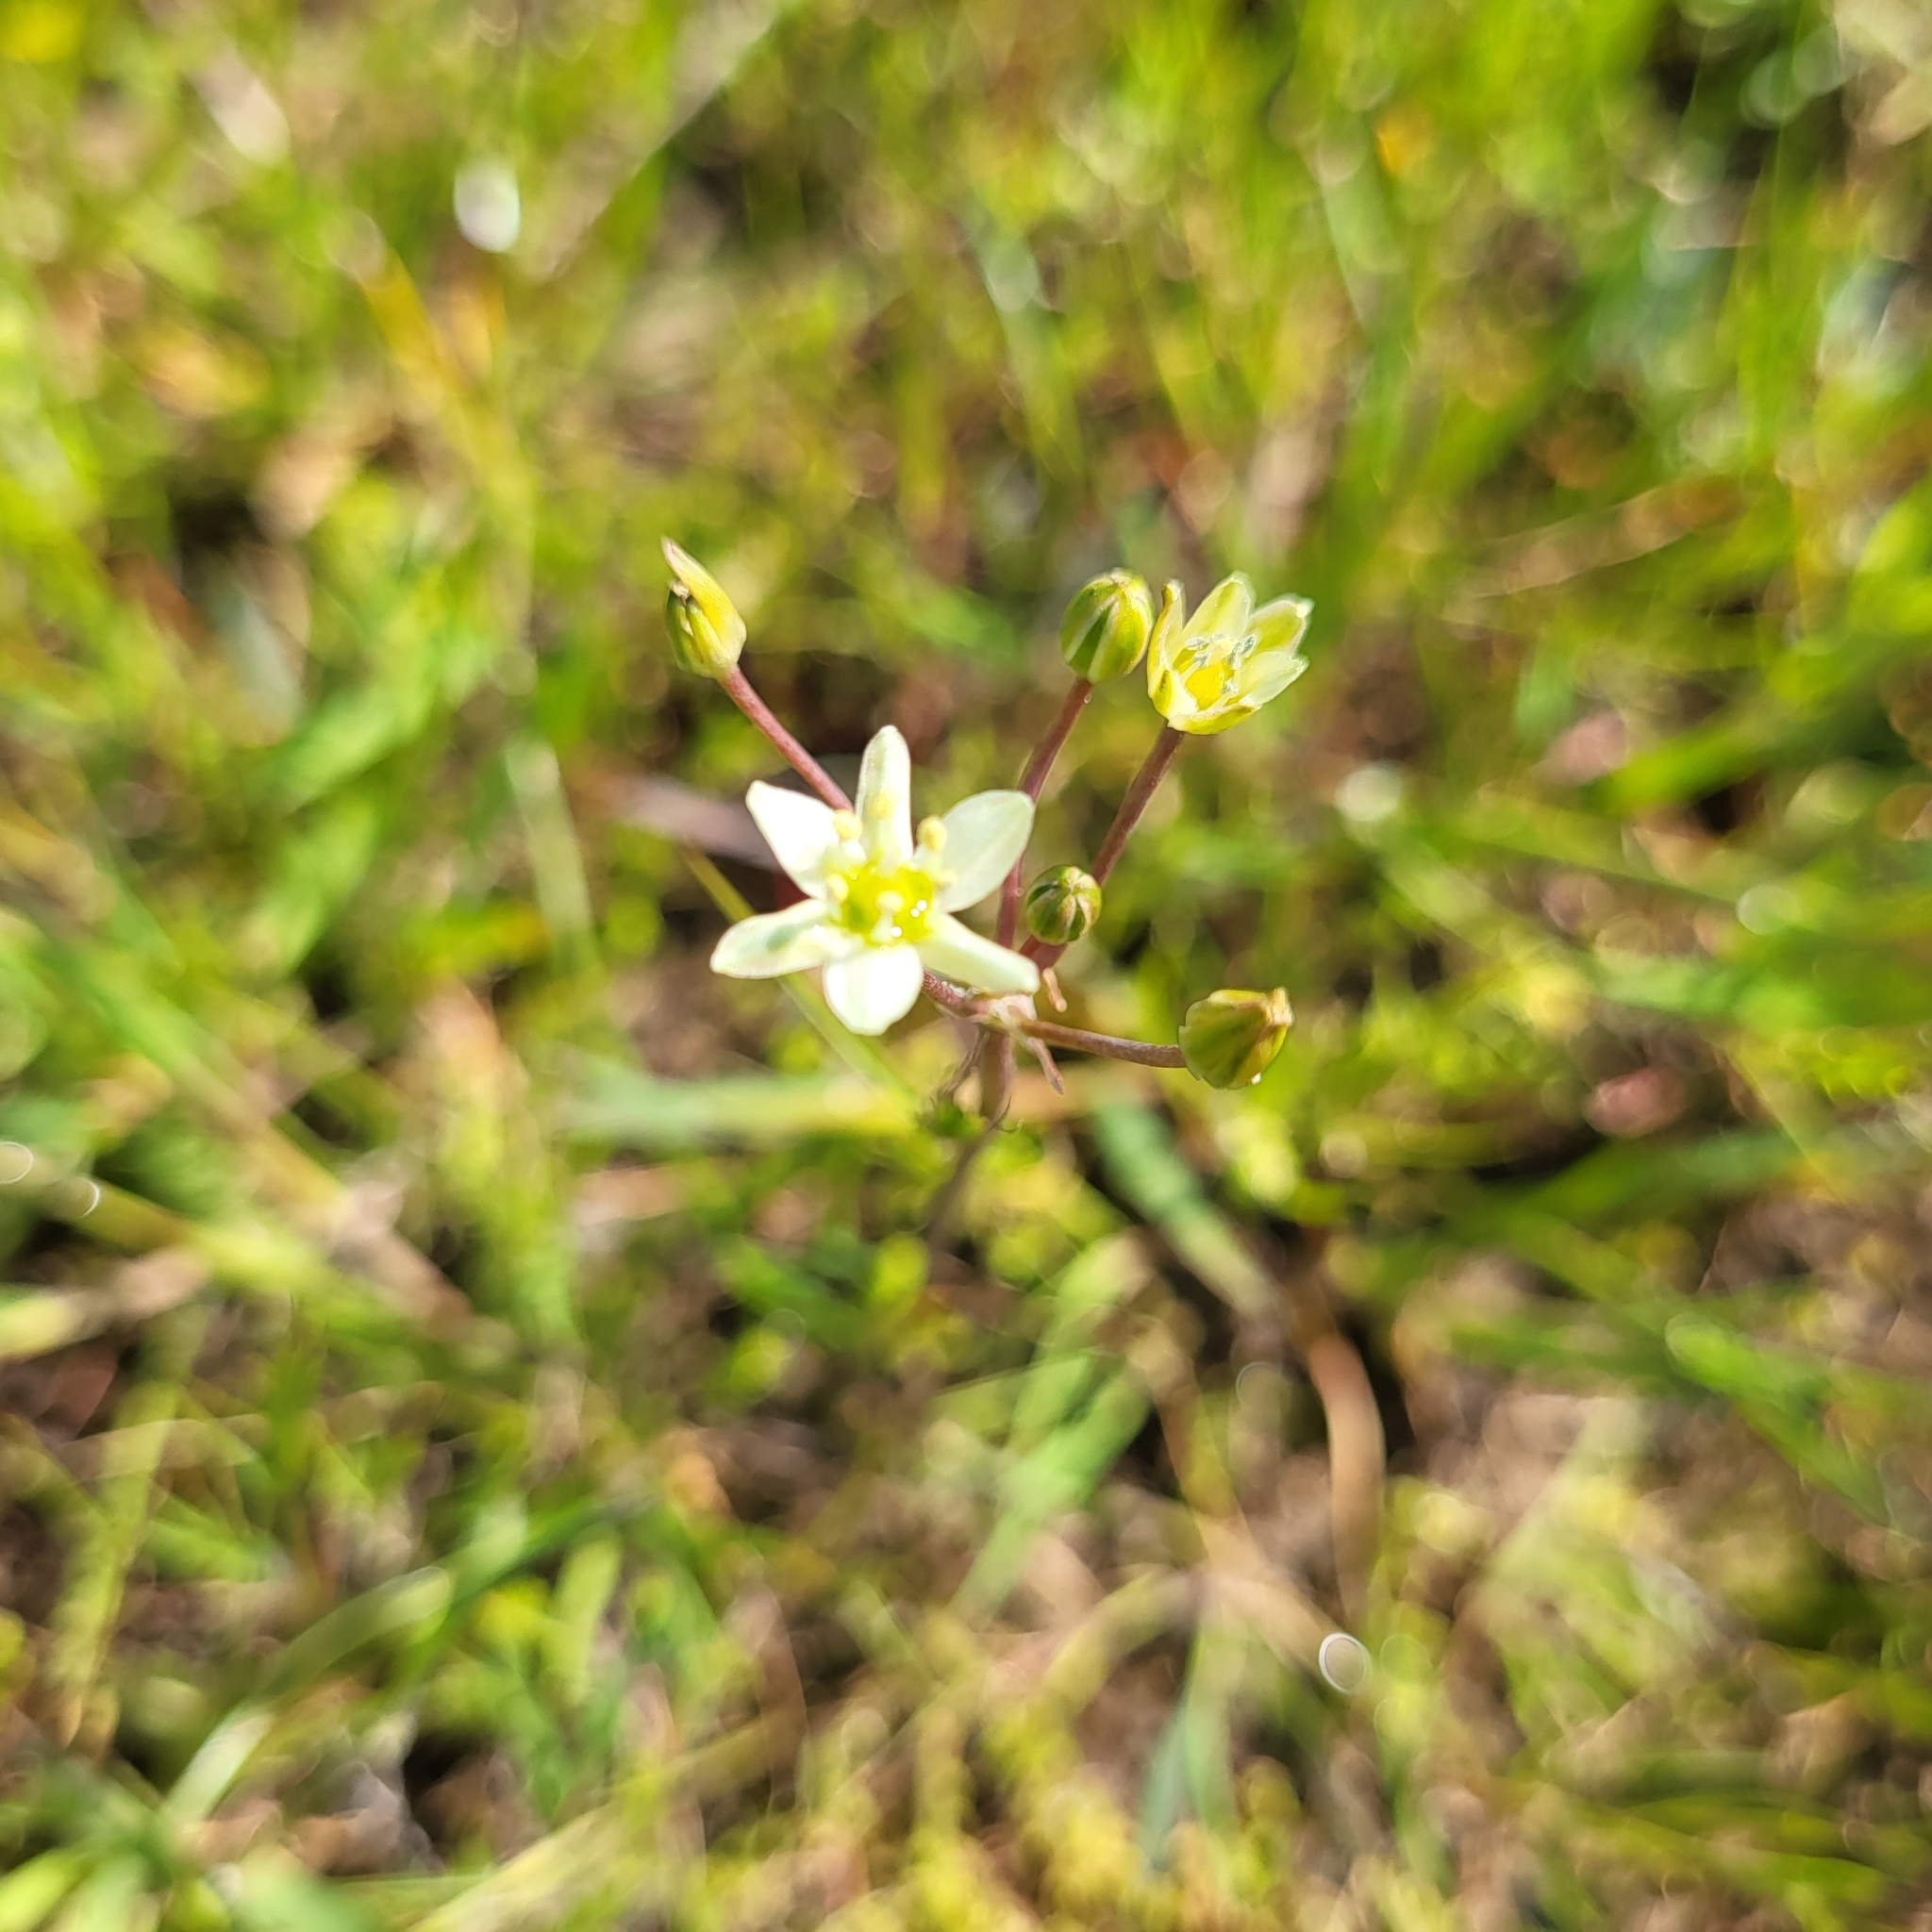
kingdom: Plantae
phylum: Tracheophyta
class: Liliopsida
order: Asparagales
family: Asparagaceae
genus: Muilla
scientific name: Muilla maritima
